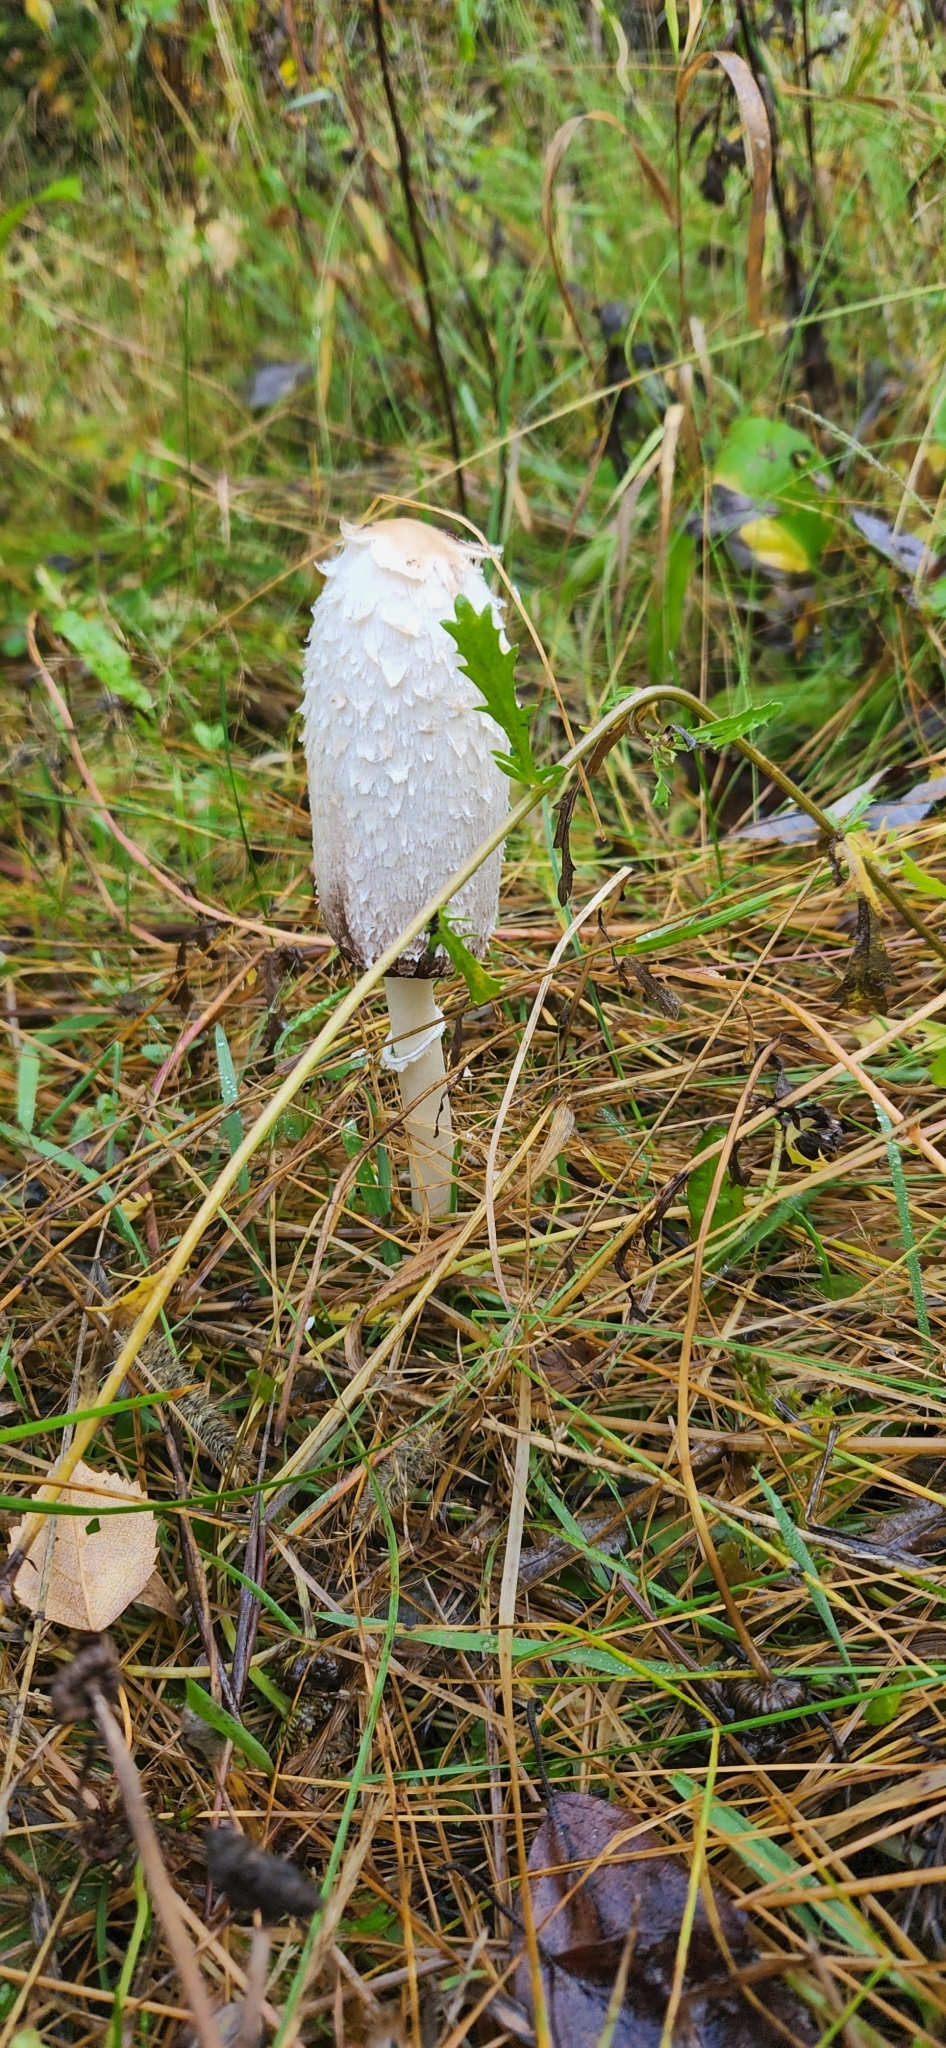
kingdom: Fungi
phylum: Basidiomycota
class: Agaricomycetes
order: Agaricales
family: Agaricaceae
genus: Coprinus
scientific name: Coprinus comatus
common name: Lawyer's wig
